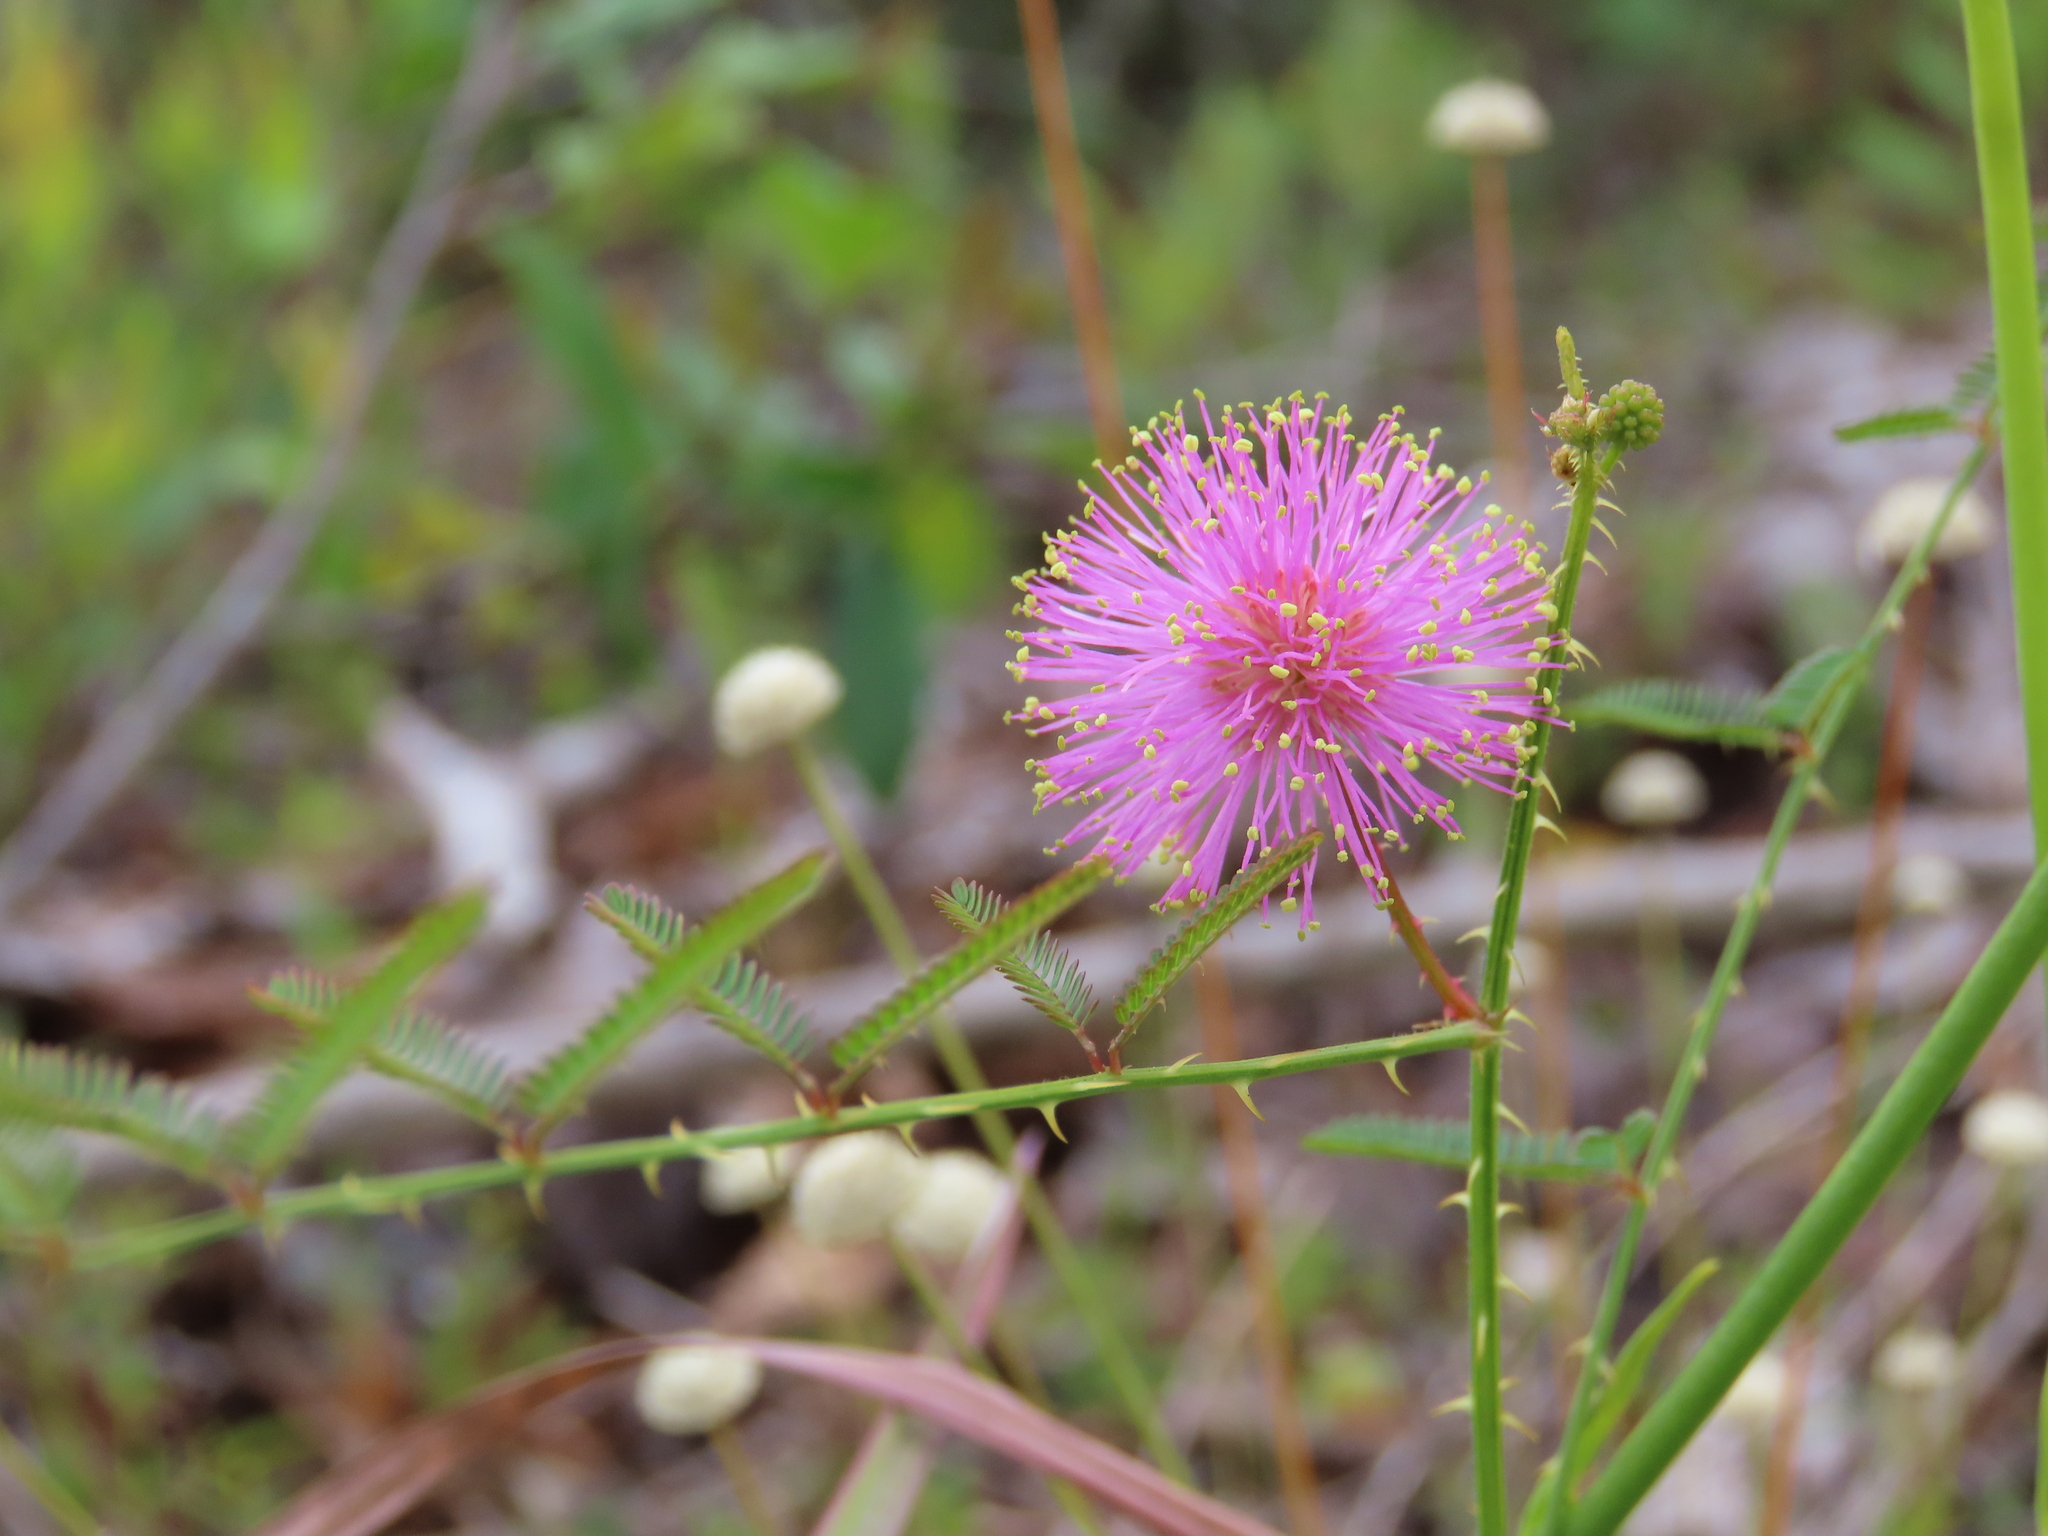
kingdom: Plantae
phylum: Tracheophyta
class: Magnoliopsida
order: Fabales
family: Fabaceae
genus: Mimosa
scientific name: Mimosa quadrivalvis
